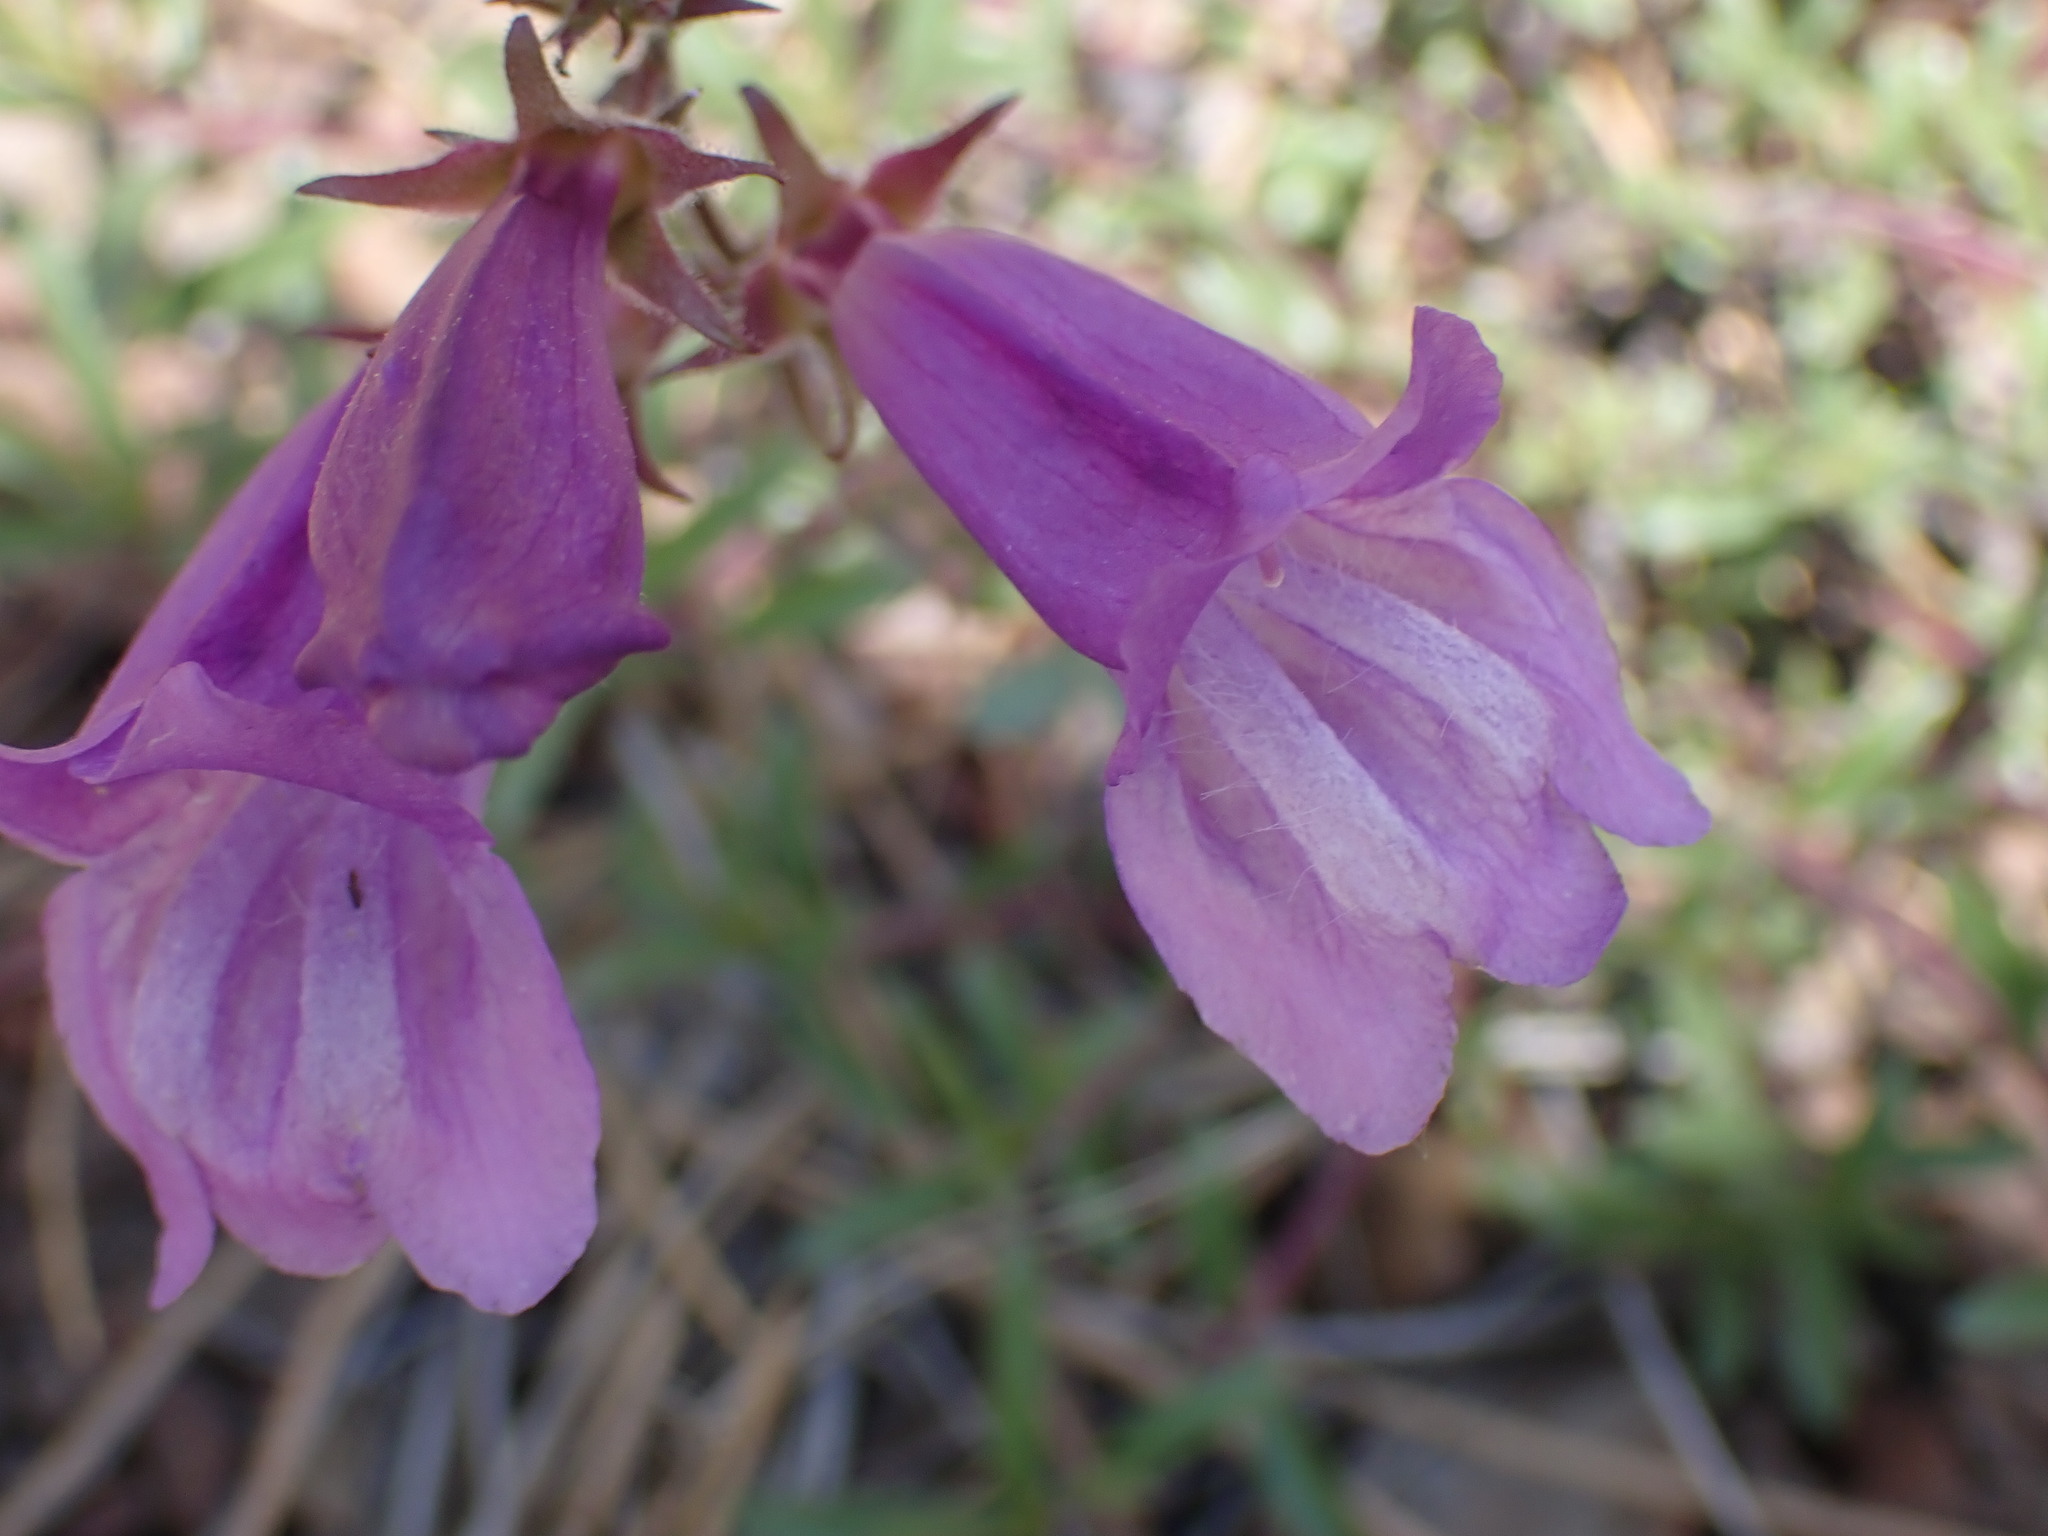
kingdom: Plantae
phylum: Tracheophyta
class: Magnoliopsida
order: Lamiales
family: Plantaginaceae
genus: Penstemon
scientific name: Penstemon fruticosus
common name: Bush penstemon
